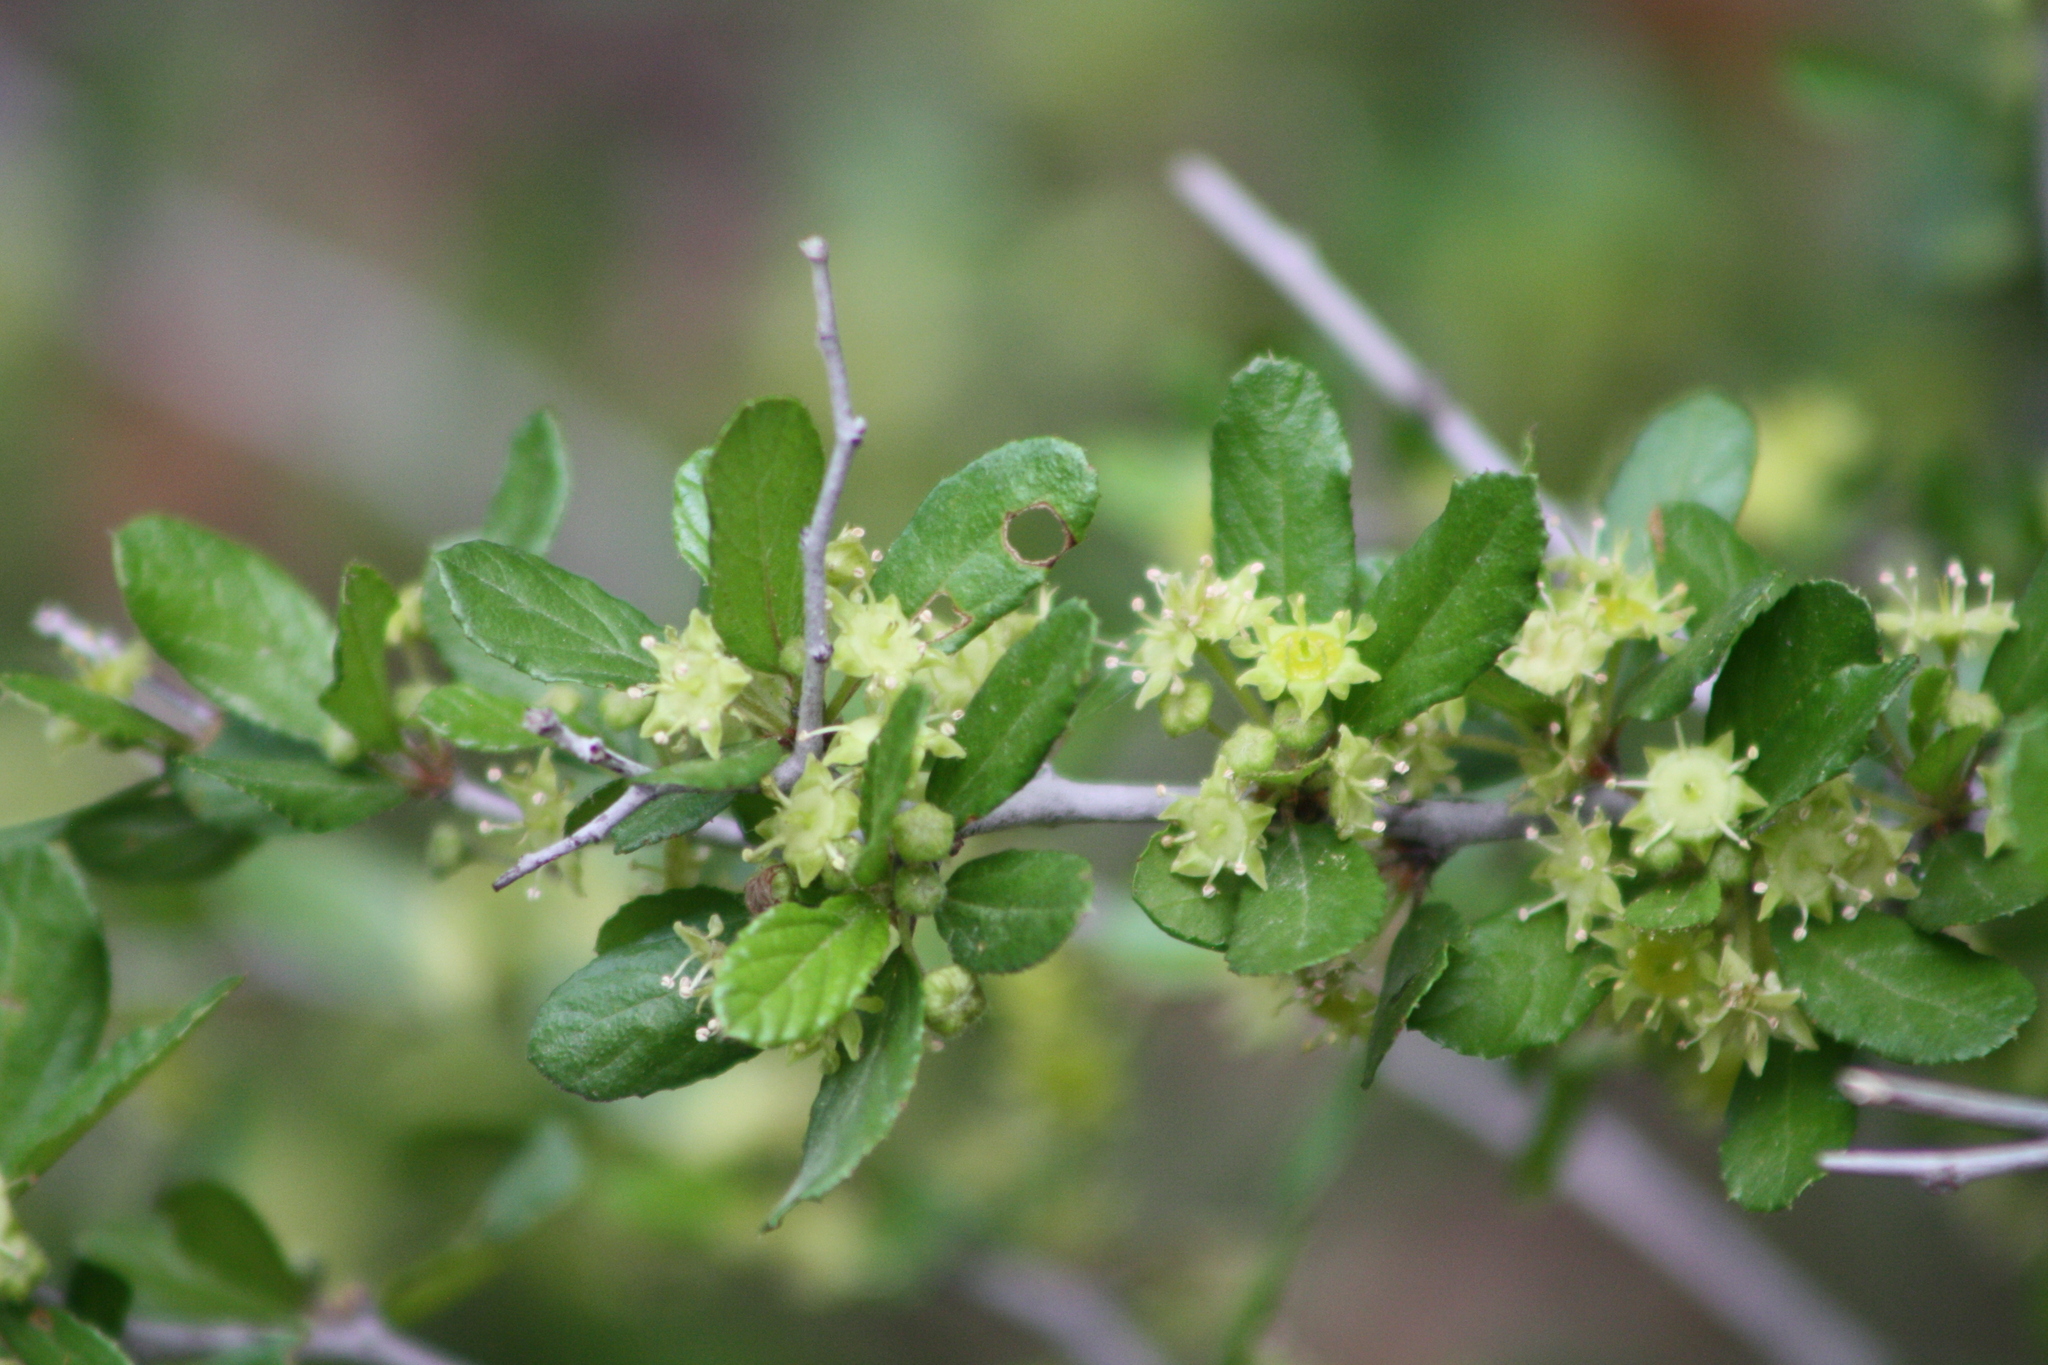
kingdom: Plantae
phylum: Tracheophyta
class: Magnoliopsida
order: Rosales
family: Rhamnaceae
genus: Colubrina
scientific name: Colubrina texensis
